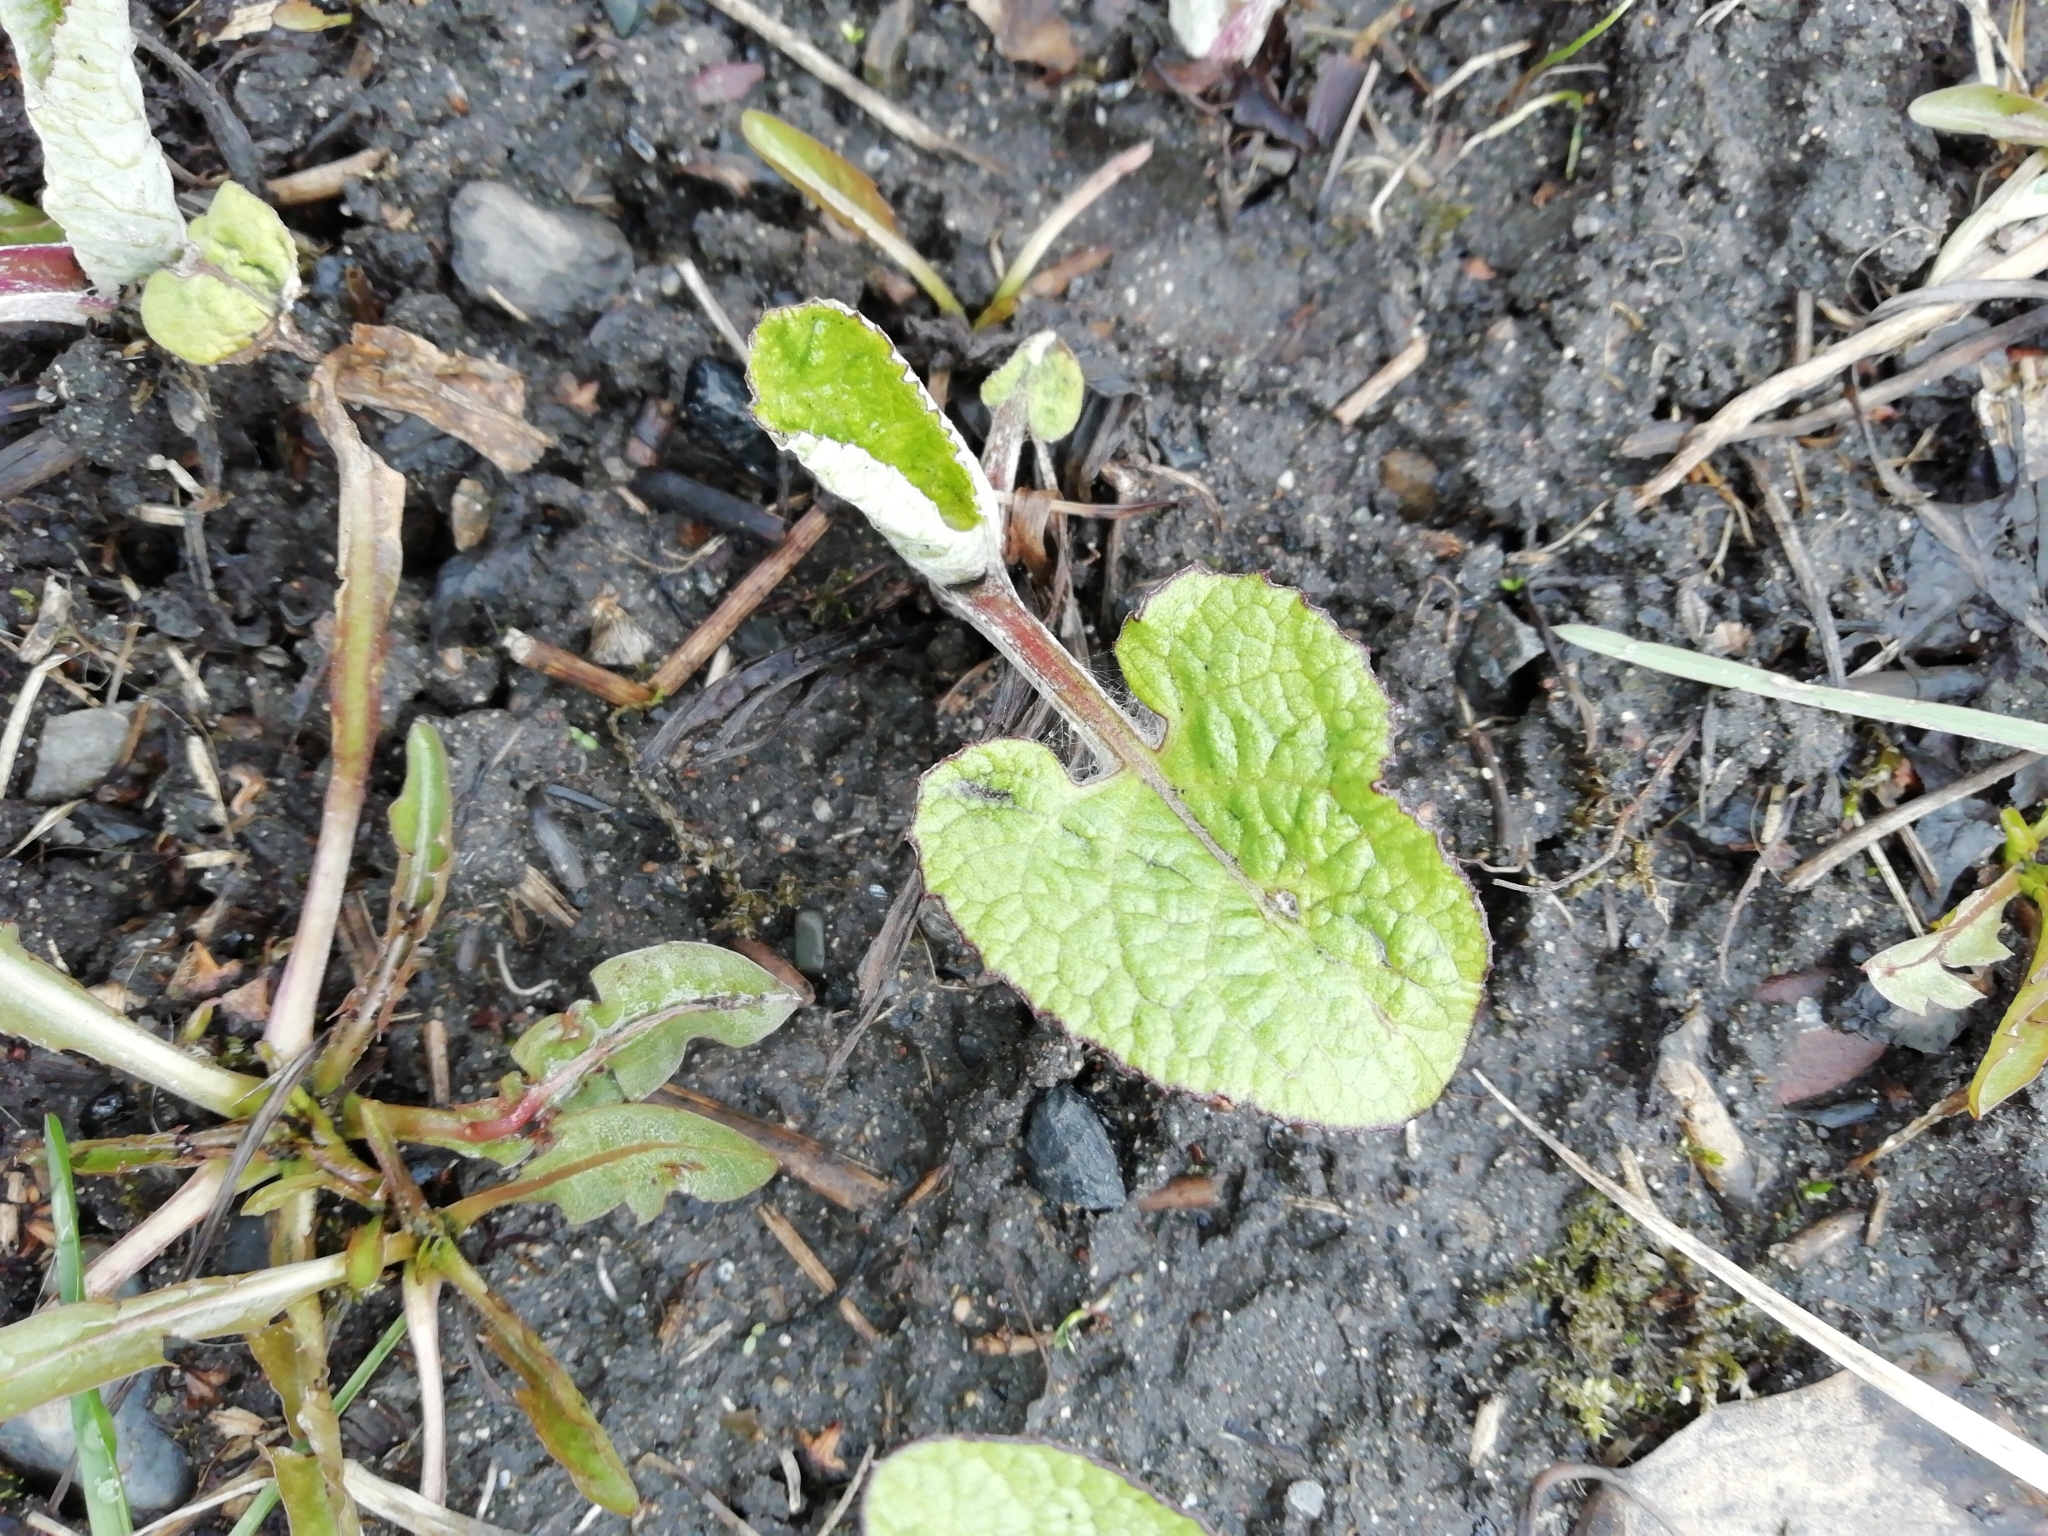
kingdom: Plantae
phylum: Tracheophyta
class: Magnoliopsida
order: Asterales
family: Asteraceae
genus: Arctium
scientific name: Arctium
